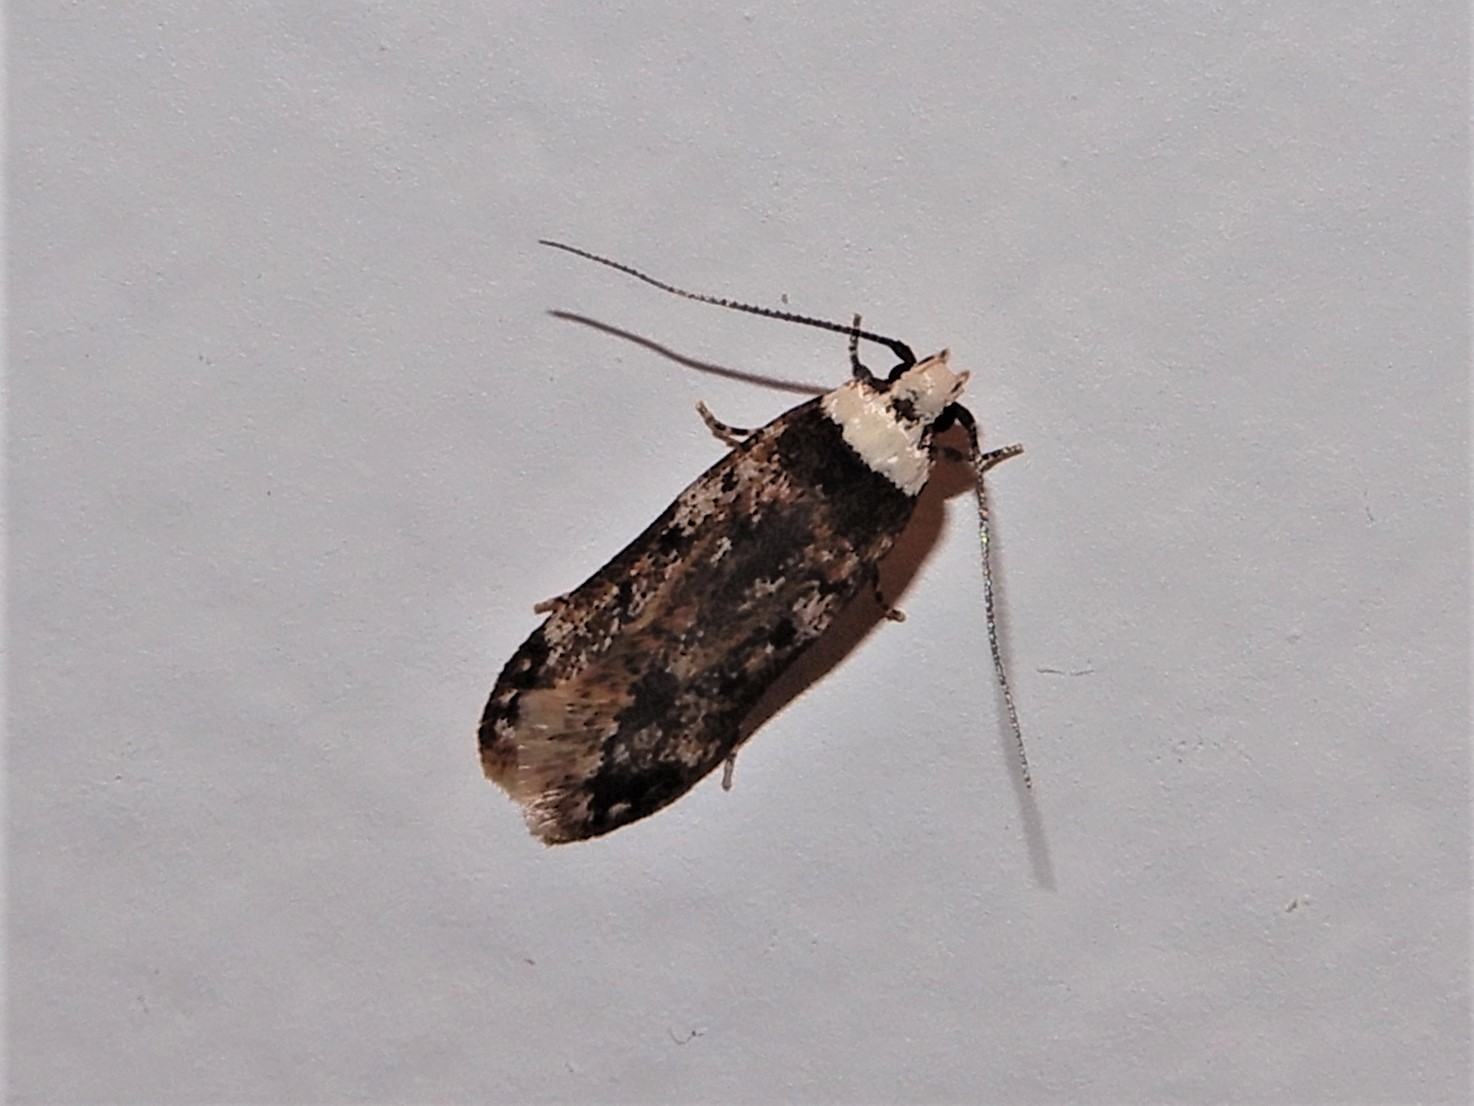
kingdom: Animalia
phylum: Arthropoda
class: Insecta
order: Lepidoptera
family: Oecophoridae
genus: Endrosis
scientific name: Endrosis sarcitrella
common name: White-shouldered house moth
